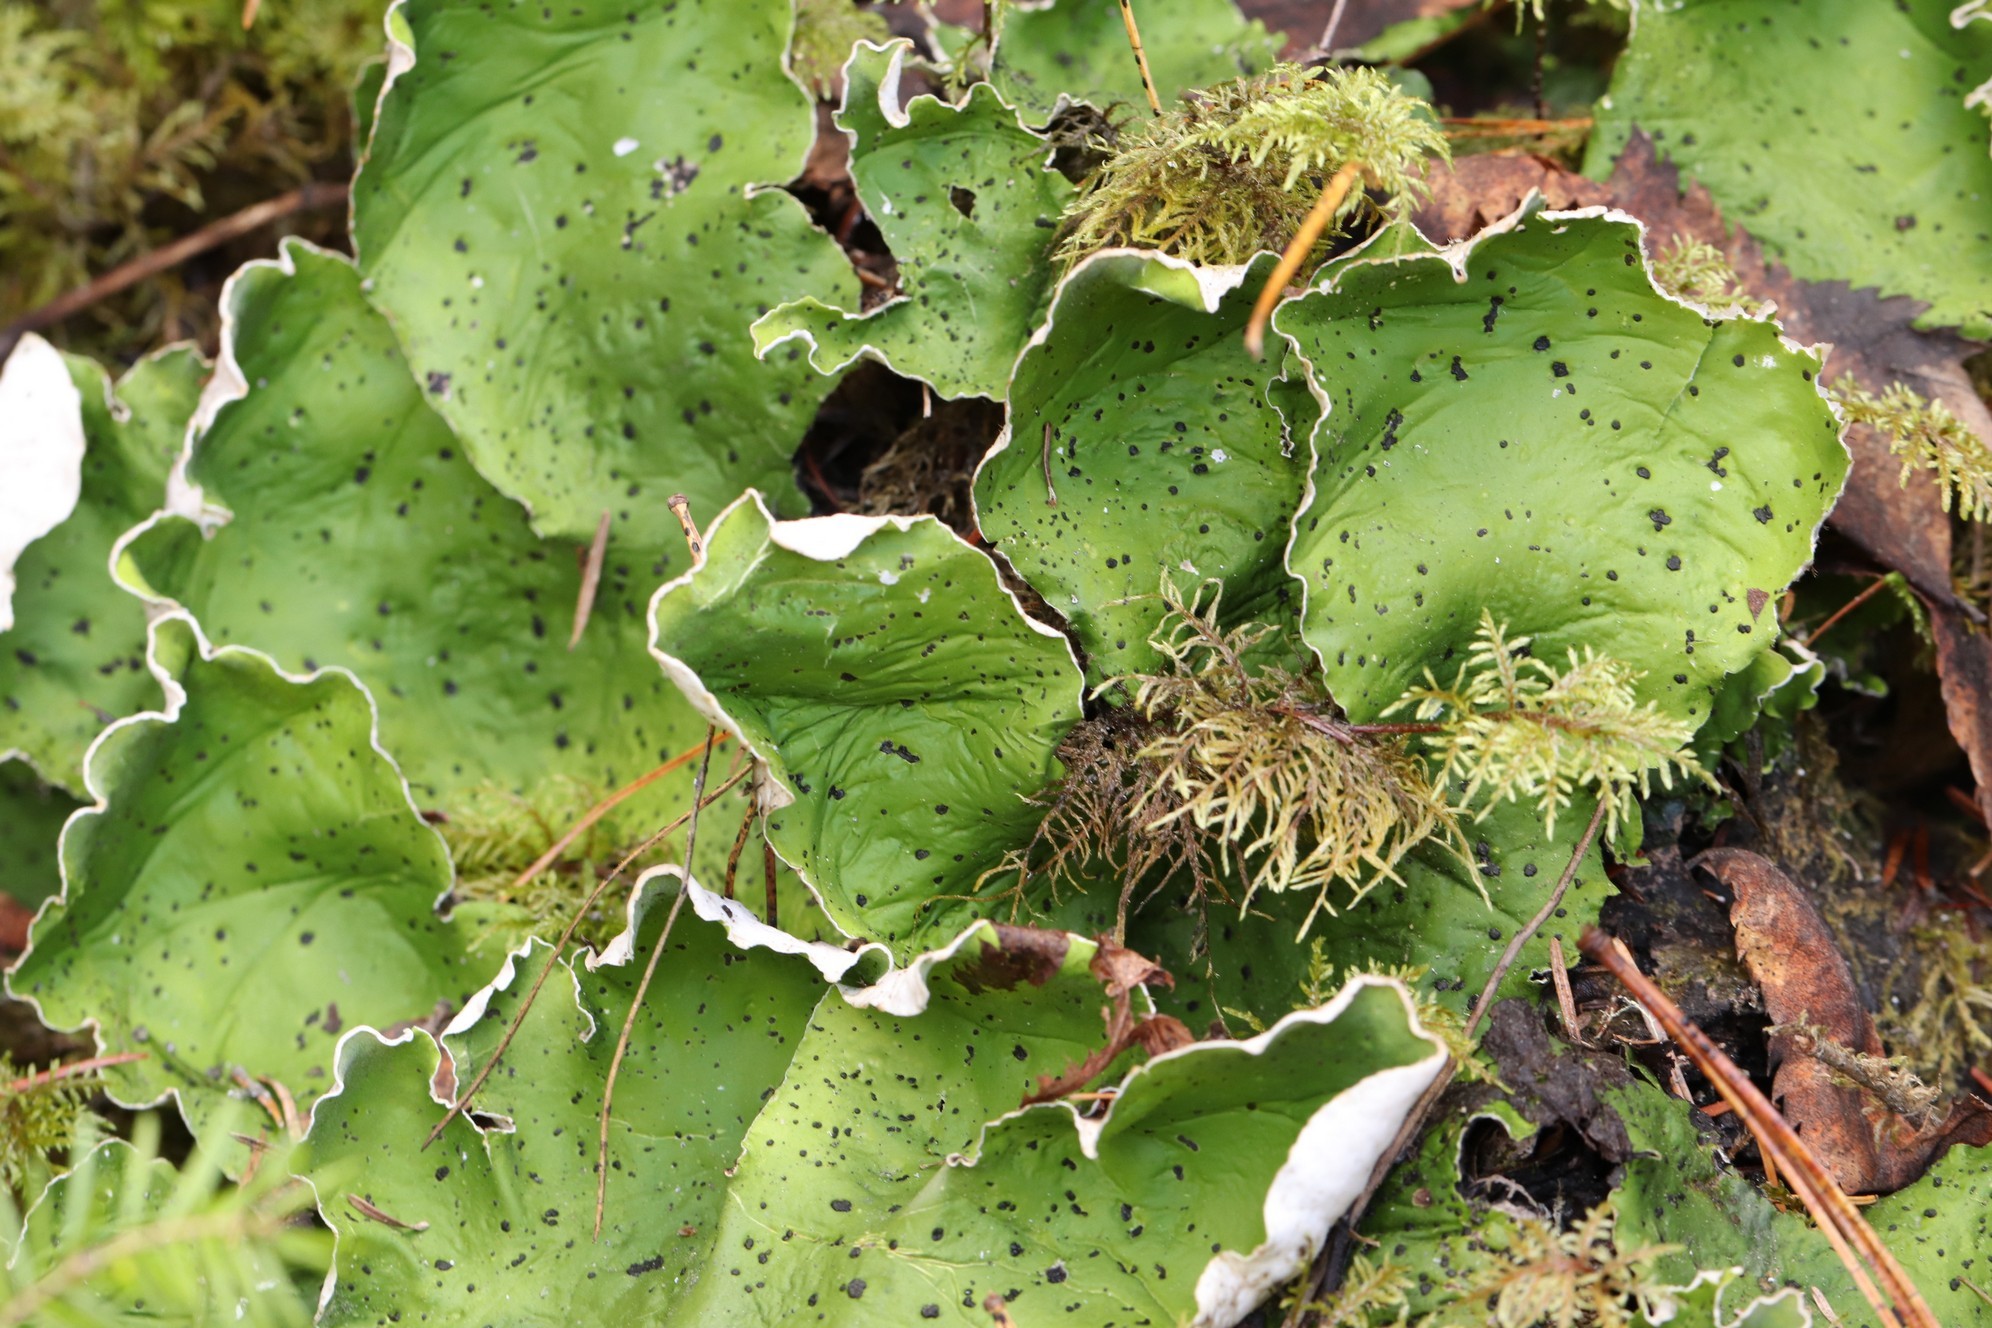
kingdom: Fungi
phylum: Ascomycota
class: Lecanoromycetes
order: Peltigerales
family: Peltigeraceae
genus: Peltigera
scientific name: Peltigera aphthosa
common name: Common freckle pelt lichen
